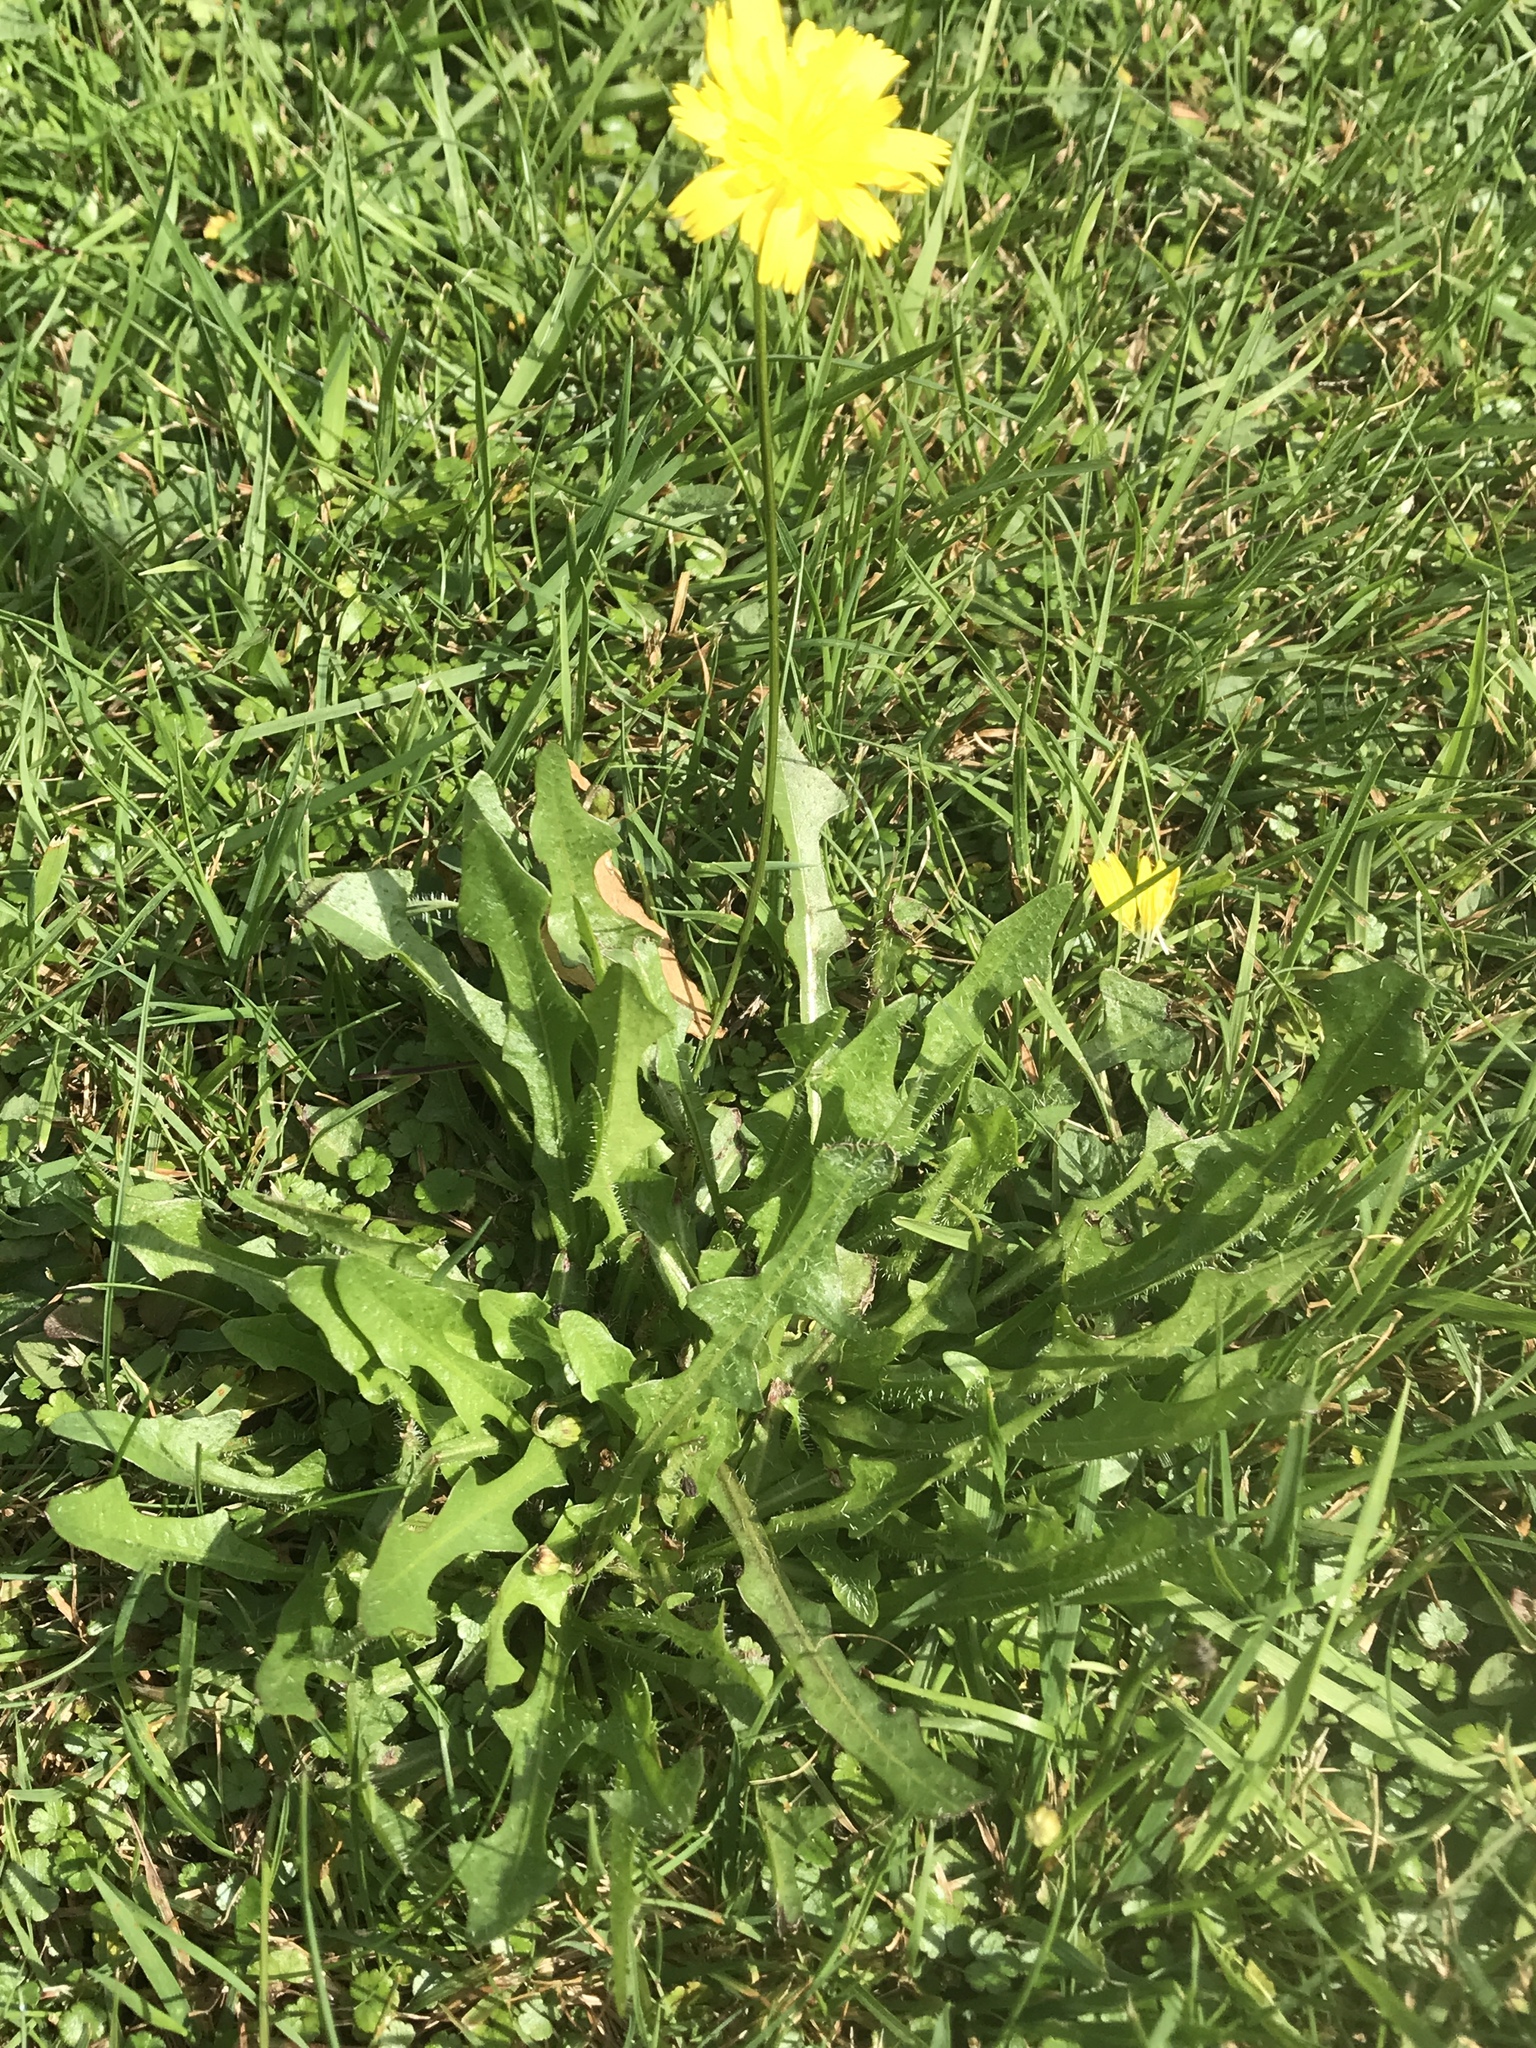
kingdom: Plantae
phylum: Tracheophyta
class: Magnoliopsida
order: Asterales
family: Asteraceae
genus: Thrincia
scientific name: Thrincia saxatilis
